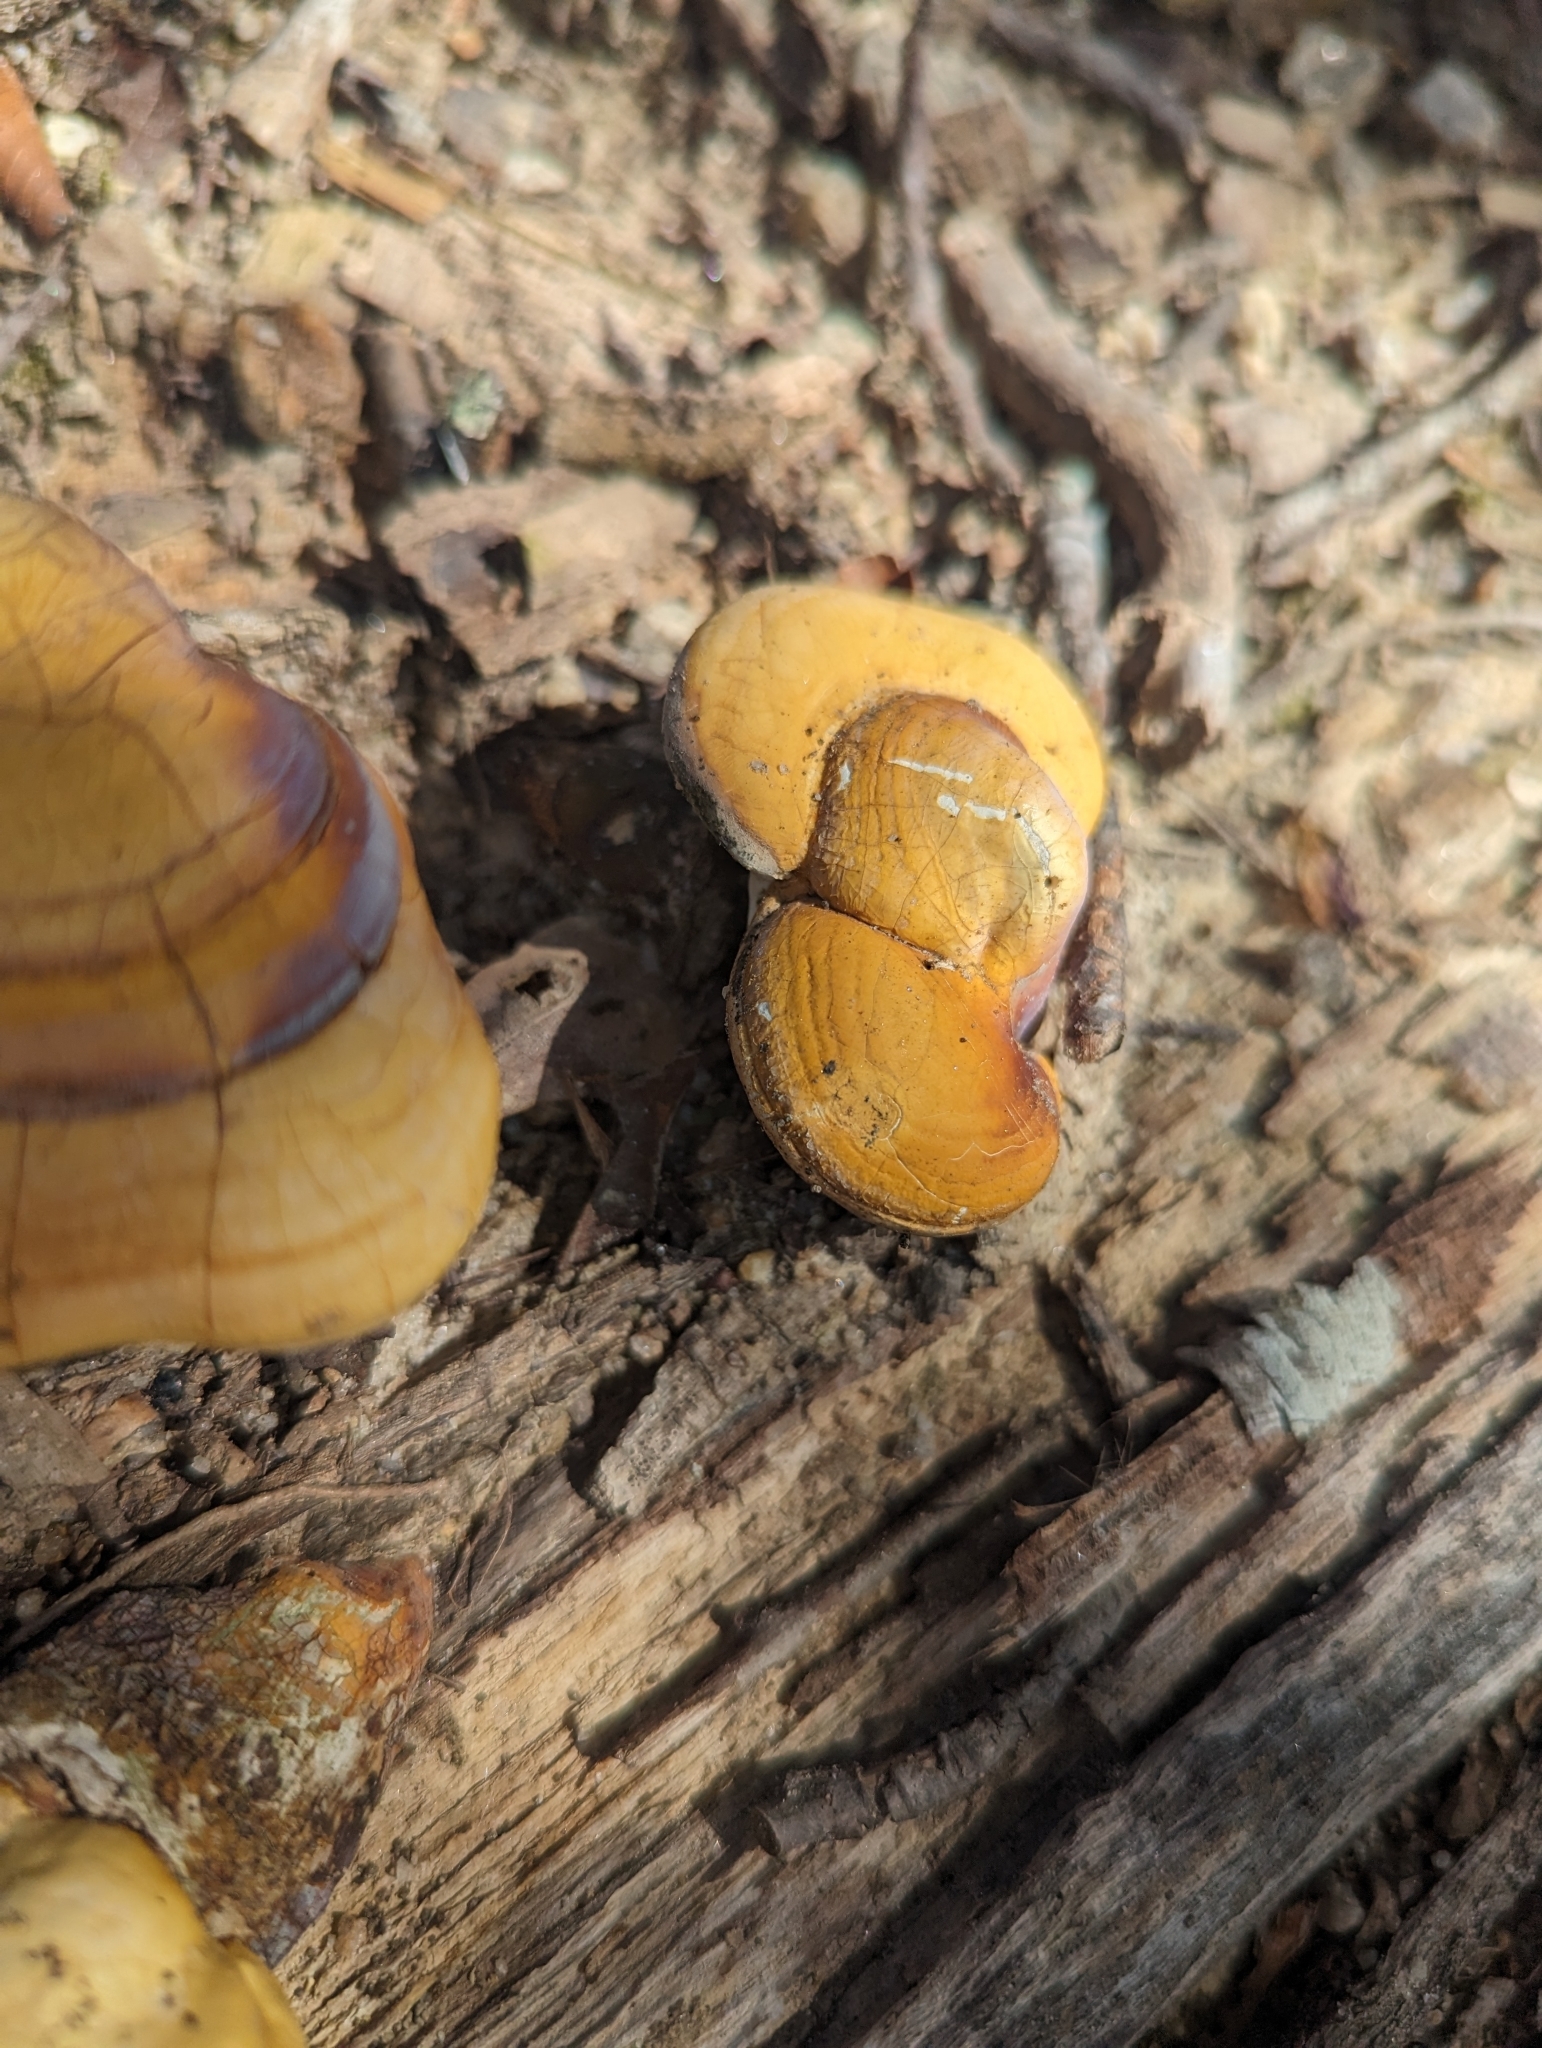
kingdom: Fungi
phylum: Basidiomycota
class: Agaricomycetes
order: Polyporales
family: Polyporaceae
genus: Ganoderma
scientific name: Ganoderma curtisii
